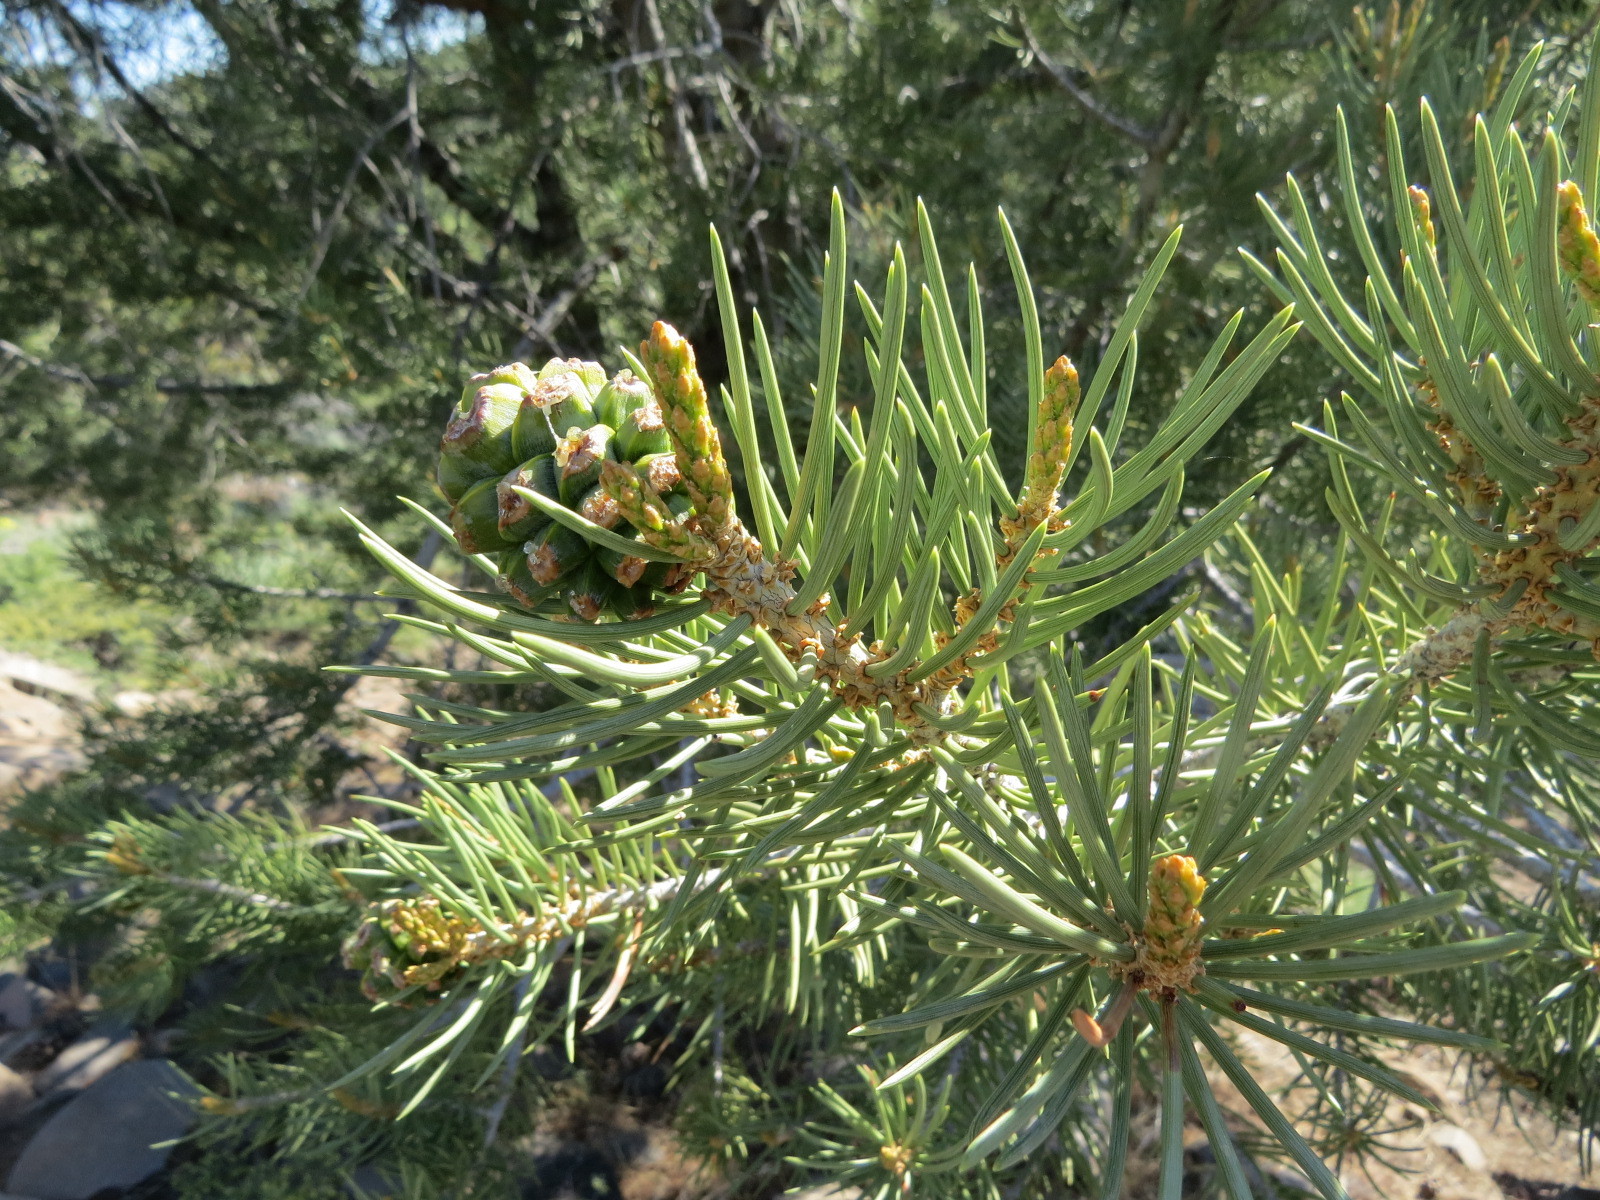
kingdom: Plantae
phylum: Tracheophyta
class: Pinopsida
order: Pinales
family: Pinaceae
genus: Pinus
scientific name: Pinus monophylla
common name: One-leaved nut pine
